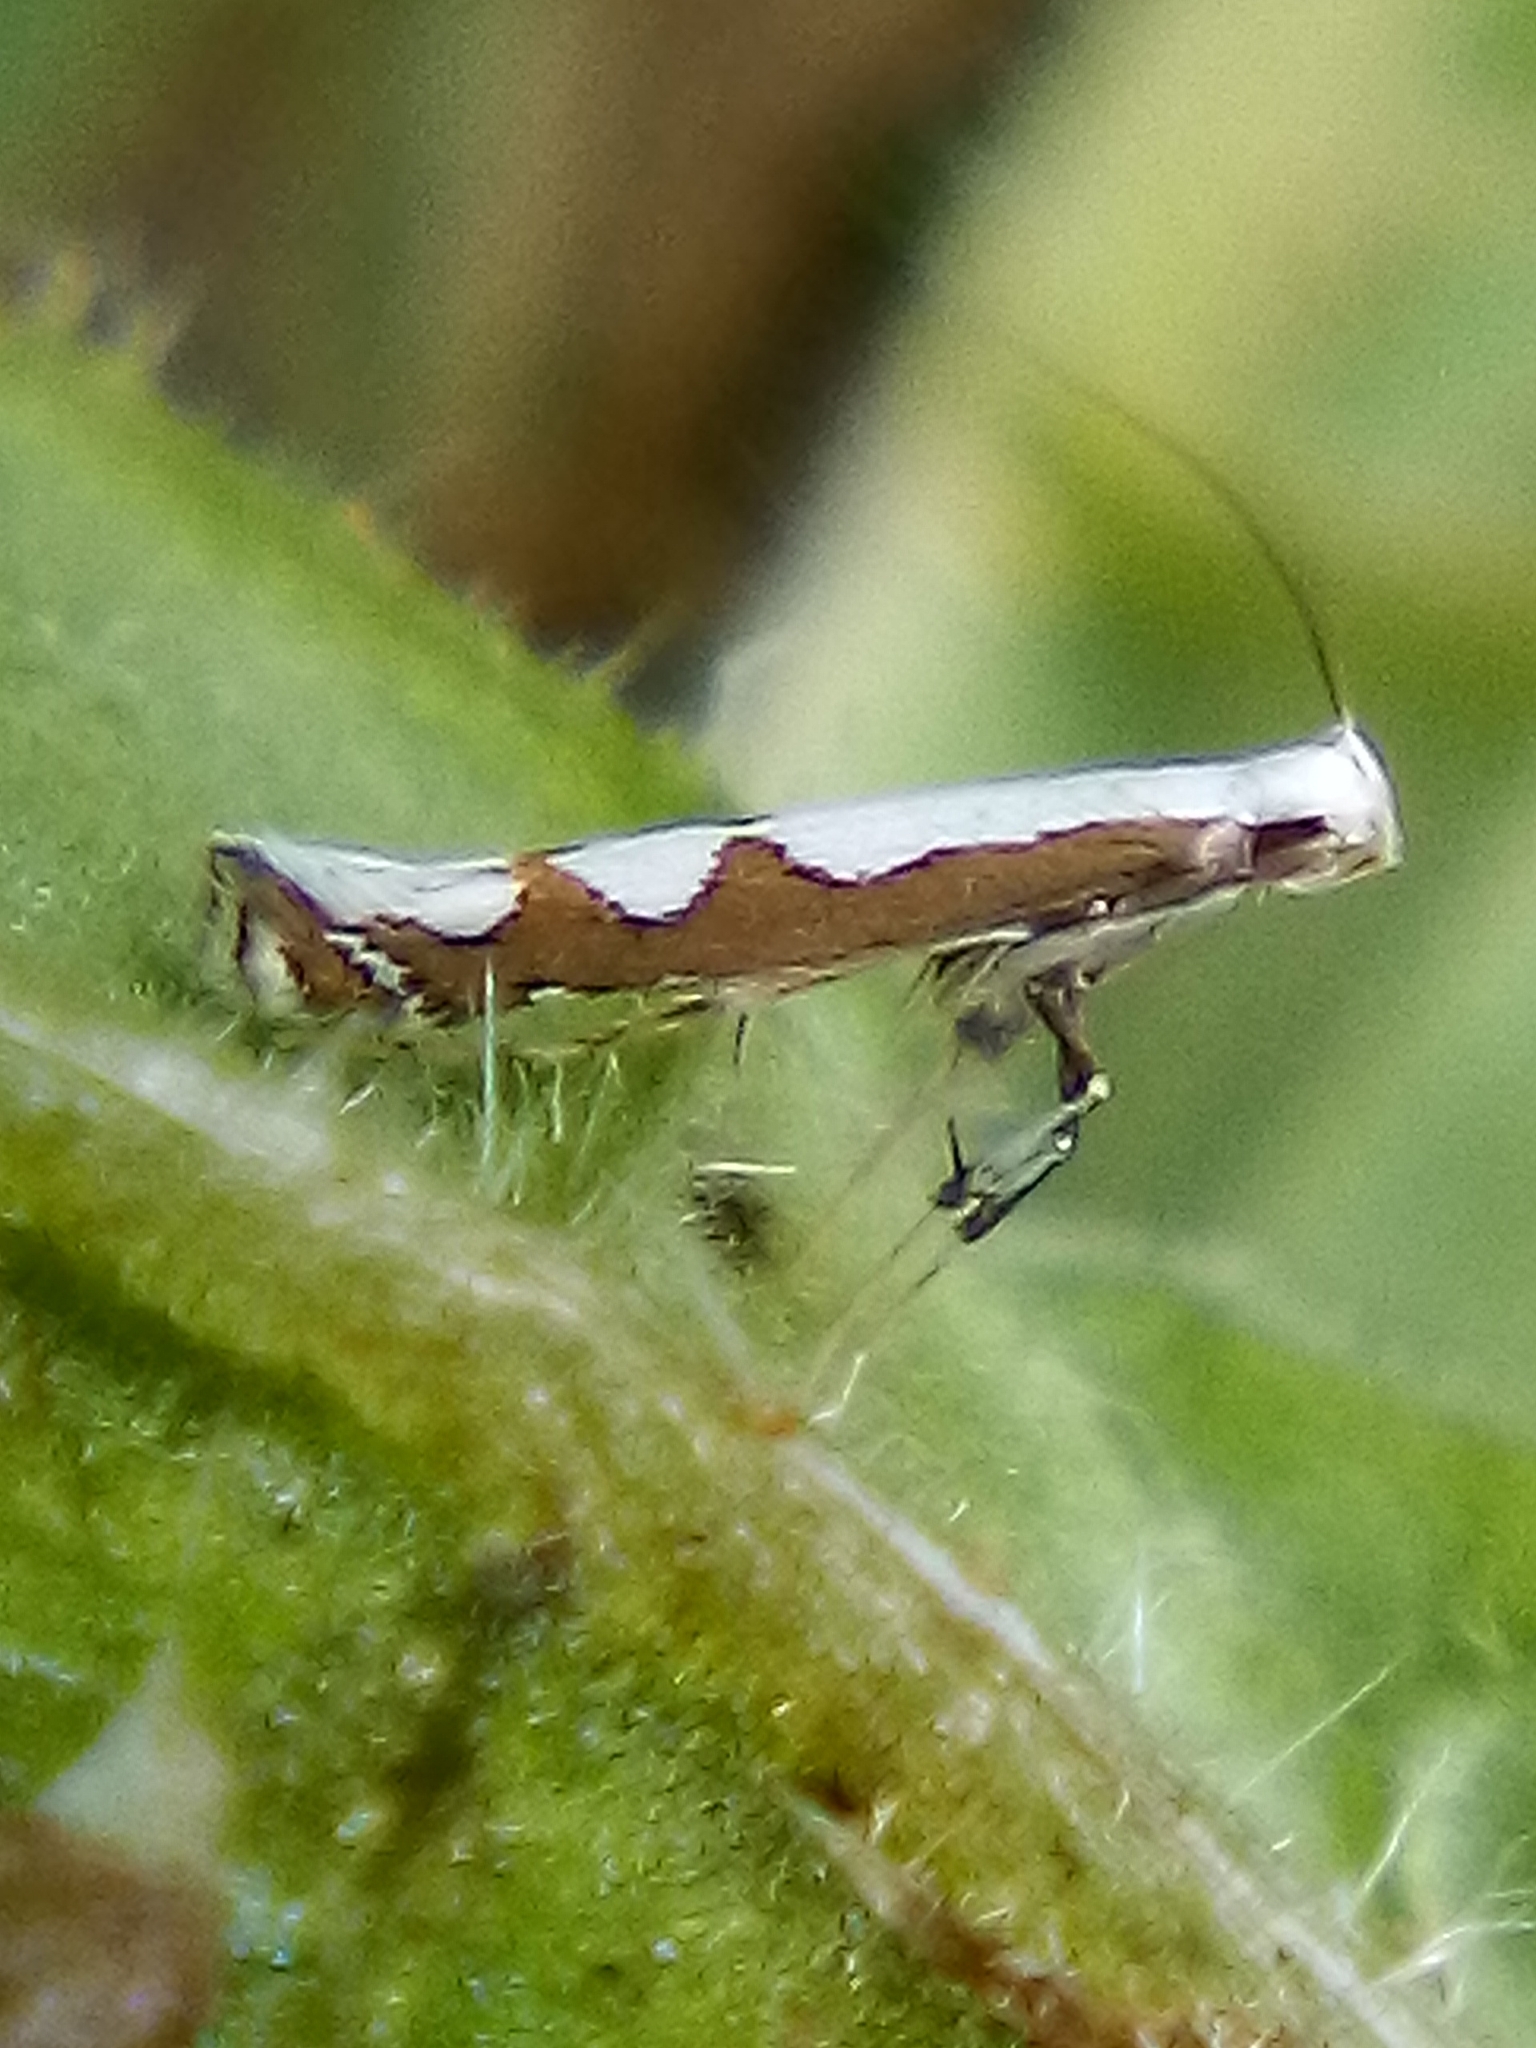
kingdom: Animalia
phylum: Arthropoda
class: Insecta
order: Lepidoptera
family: Gracillariidae
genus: Dialectica
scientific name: Dialectica scalariella
